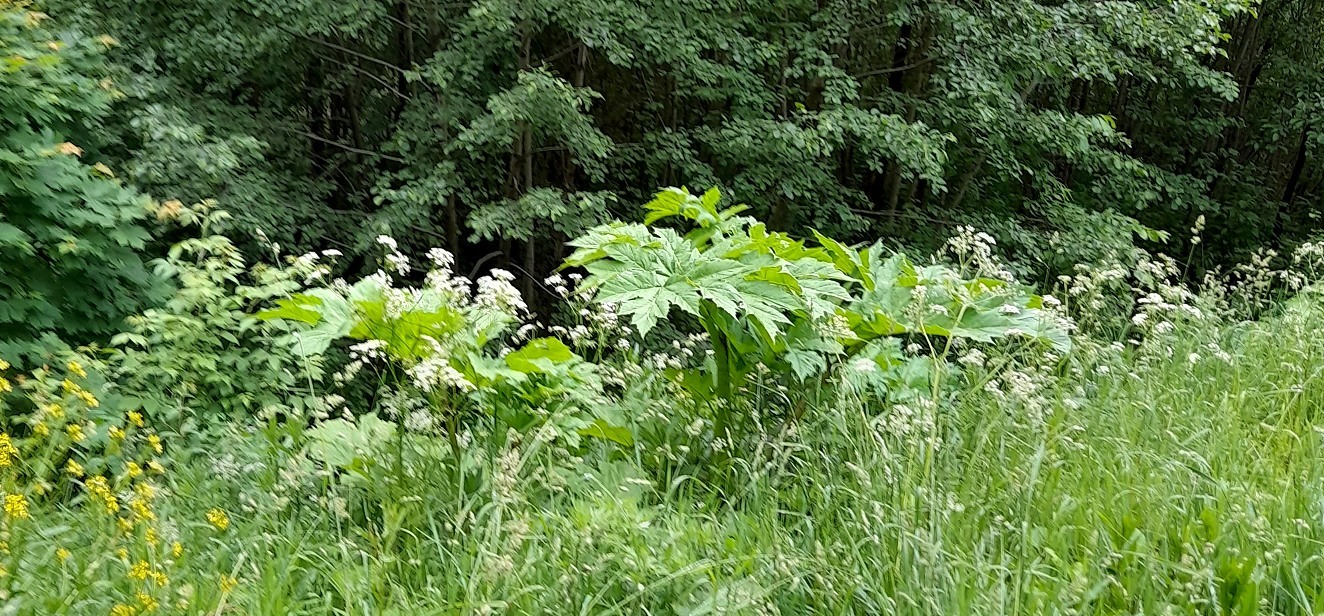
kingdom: Plantae
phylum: Tracheophyta
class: Magnoliopsida
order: Apiales
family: Apiaceae
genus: Heracleum
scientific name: Heracleum sosnowskyi
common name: Sosnowsky's hogweed
